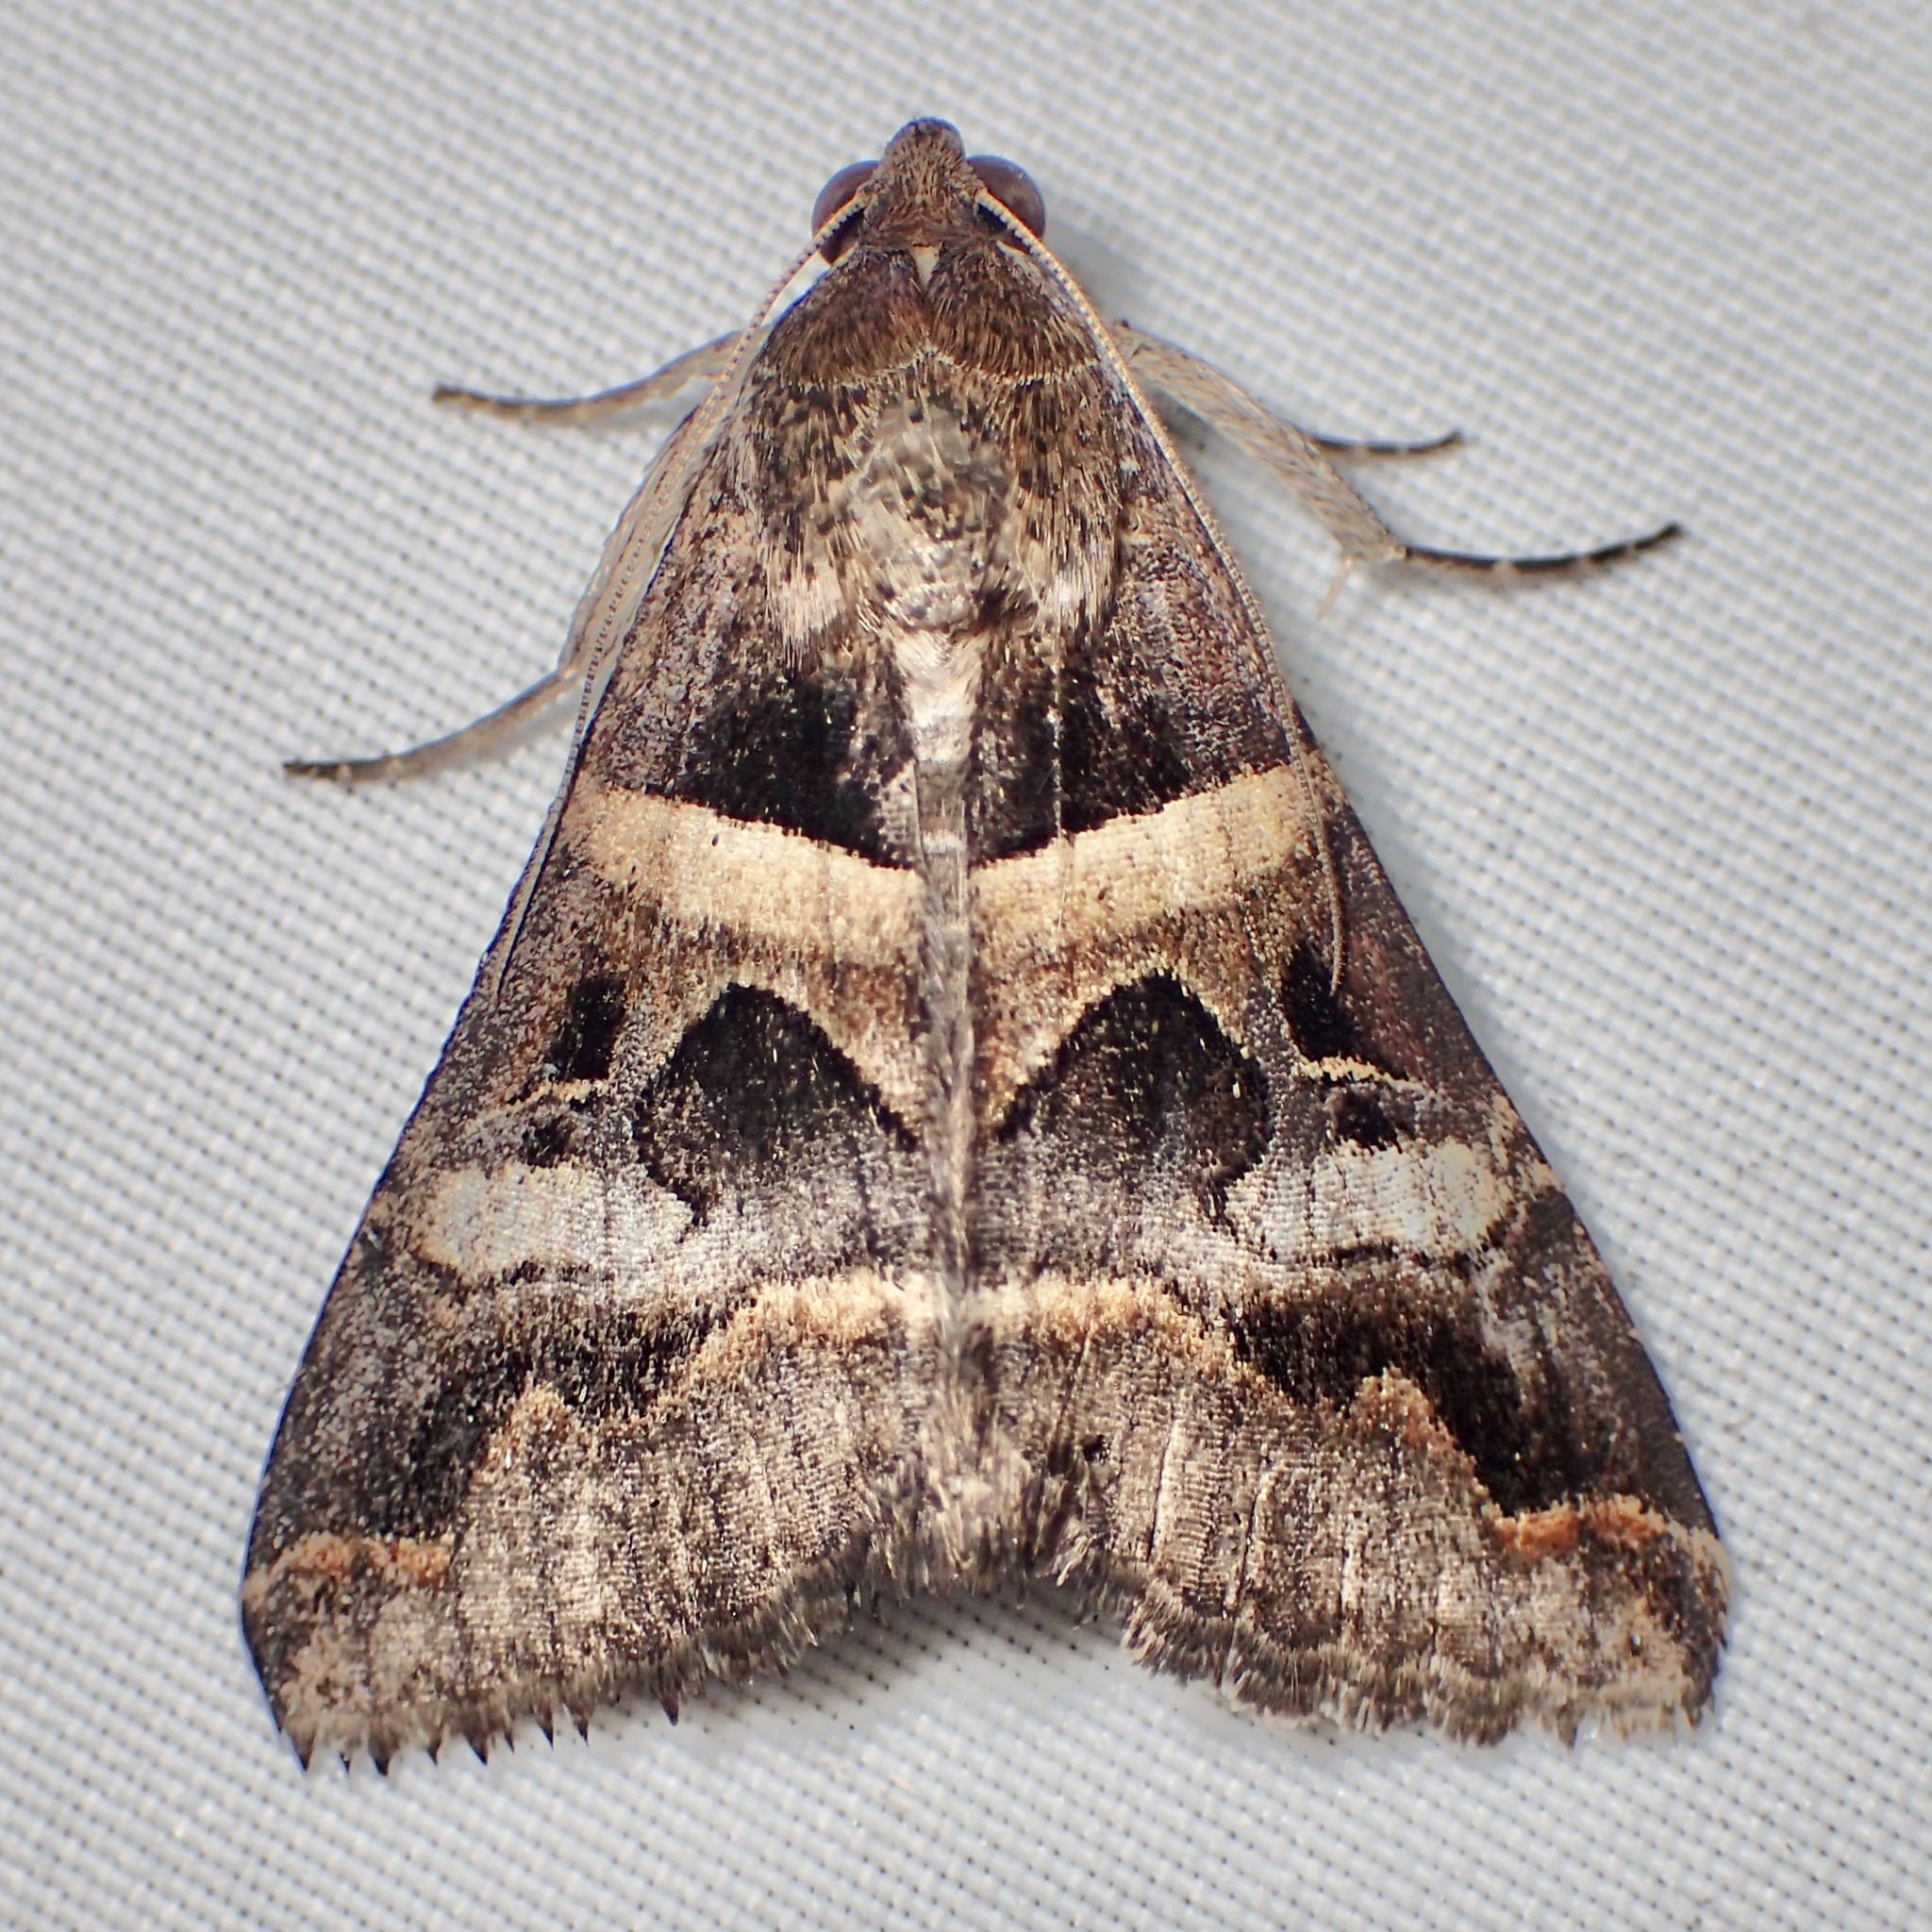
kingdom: Animalia
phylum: Arthropoda
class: Insecta
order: Lepidoptera
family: Erebidae
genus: Melipotis
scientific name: Melipotis perpendicularis
